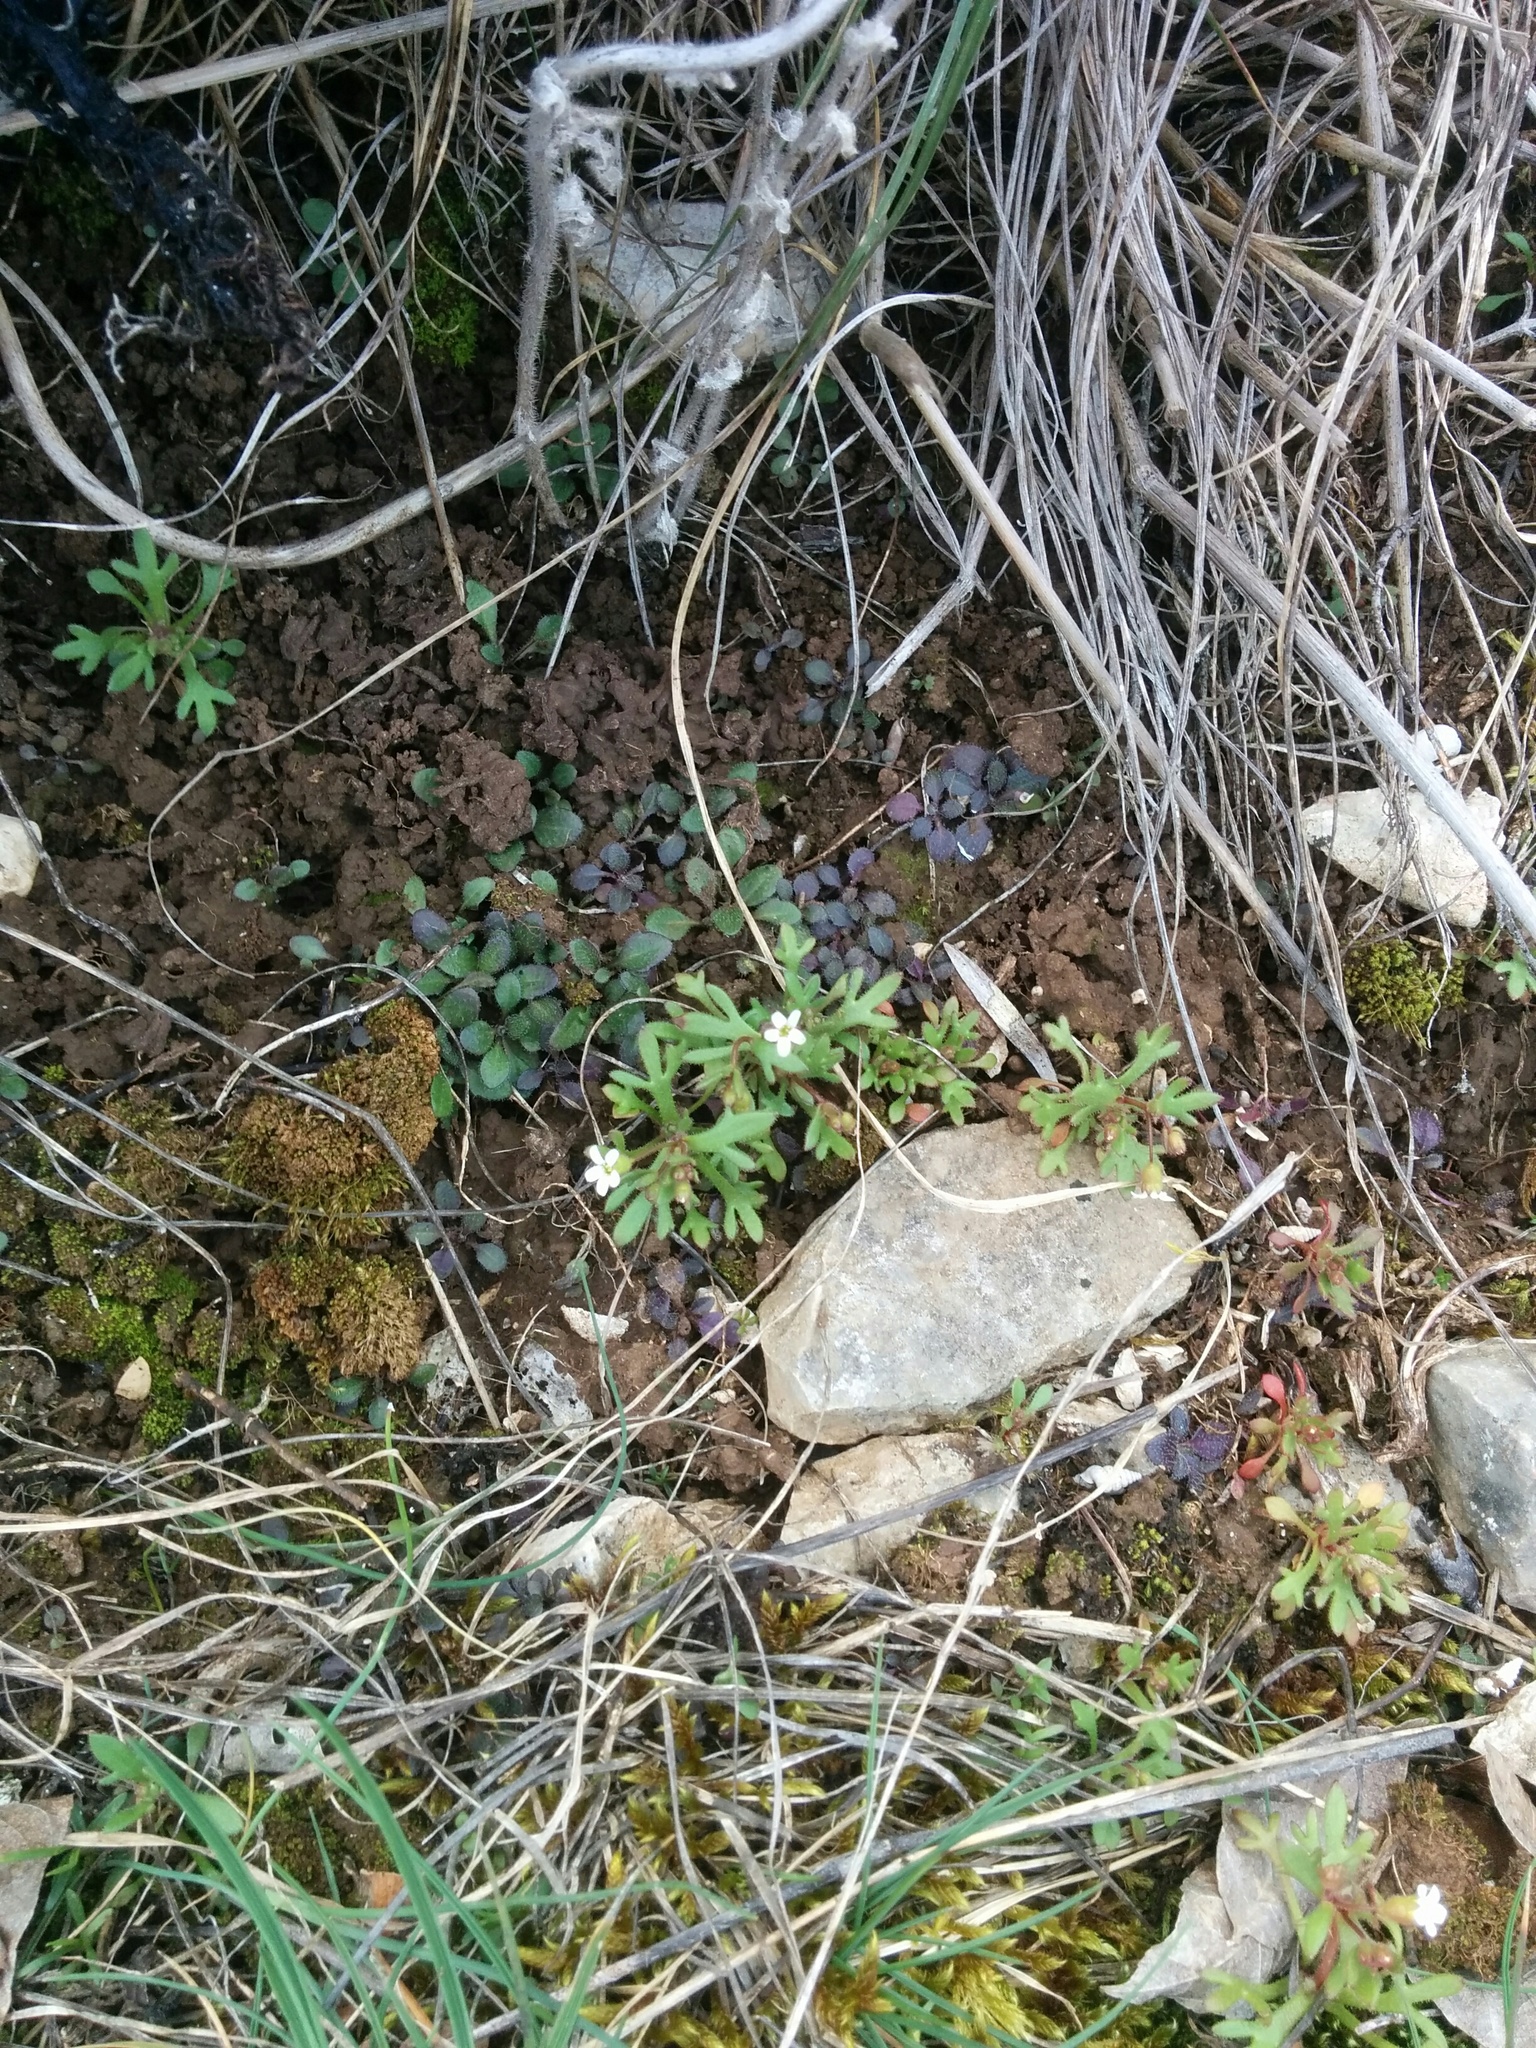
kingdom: Plantae
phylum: Tracheophyta
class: Magnoliopsida
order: Saxifragales
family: Saxifragaceae
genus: Saxifraga
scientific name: Saxifraga tridactylites
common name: Rue-leaved saxifrage
